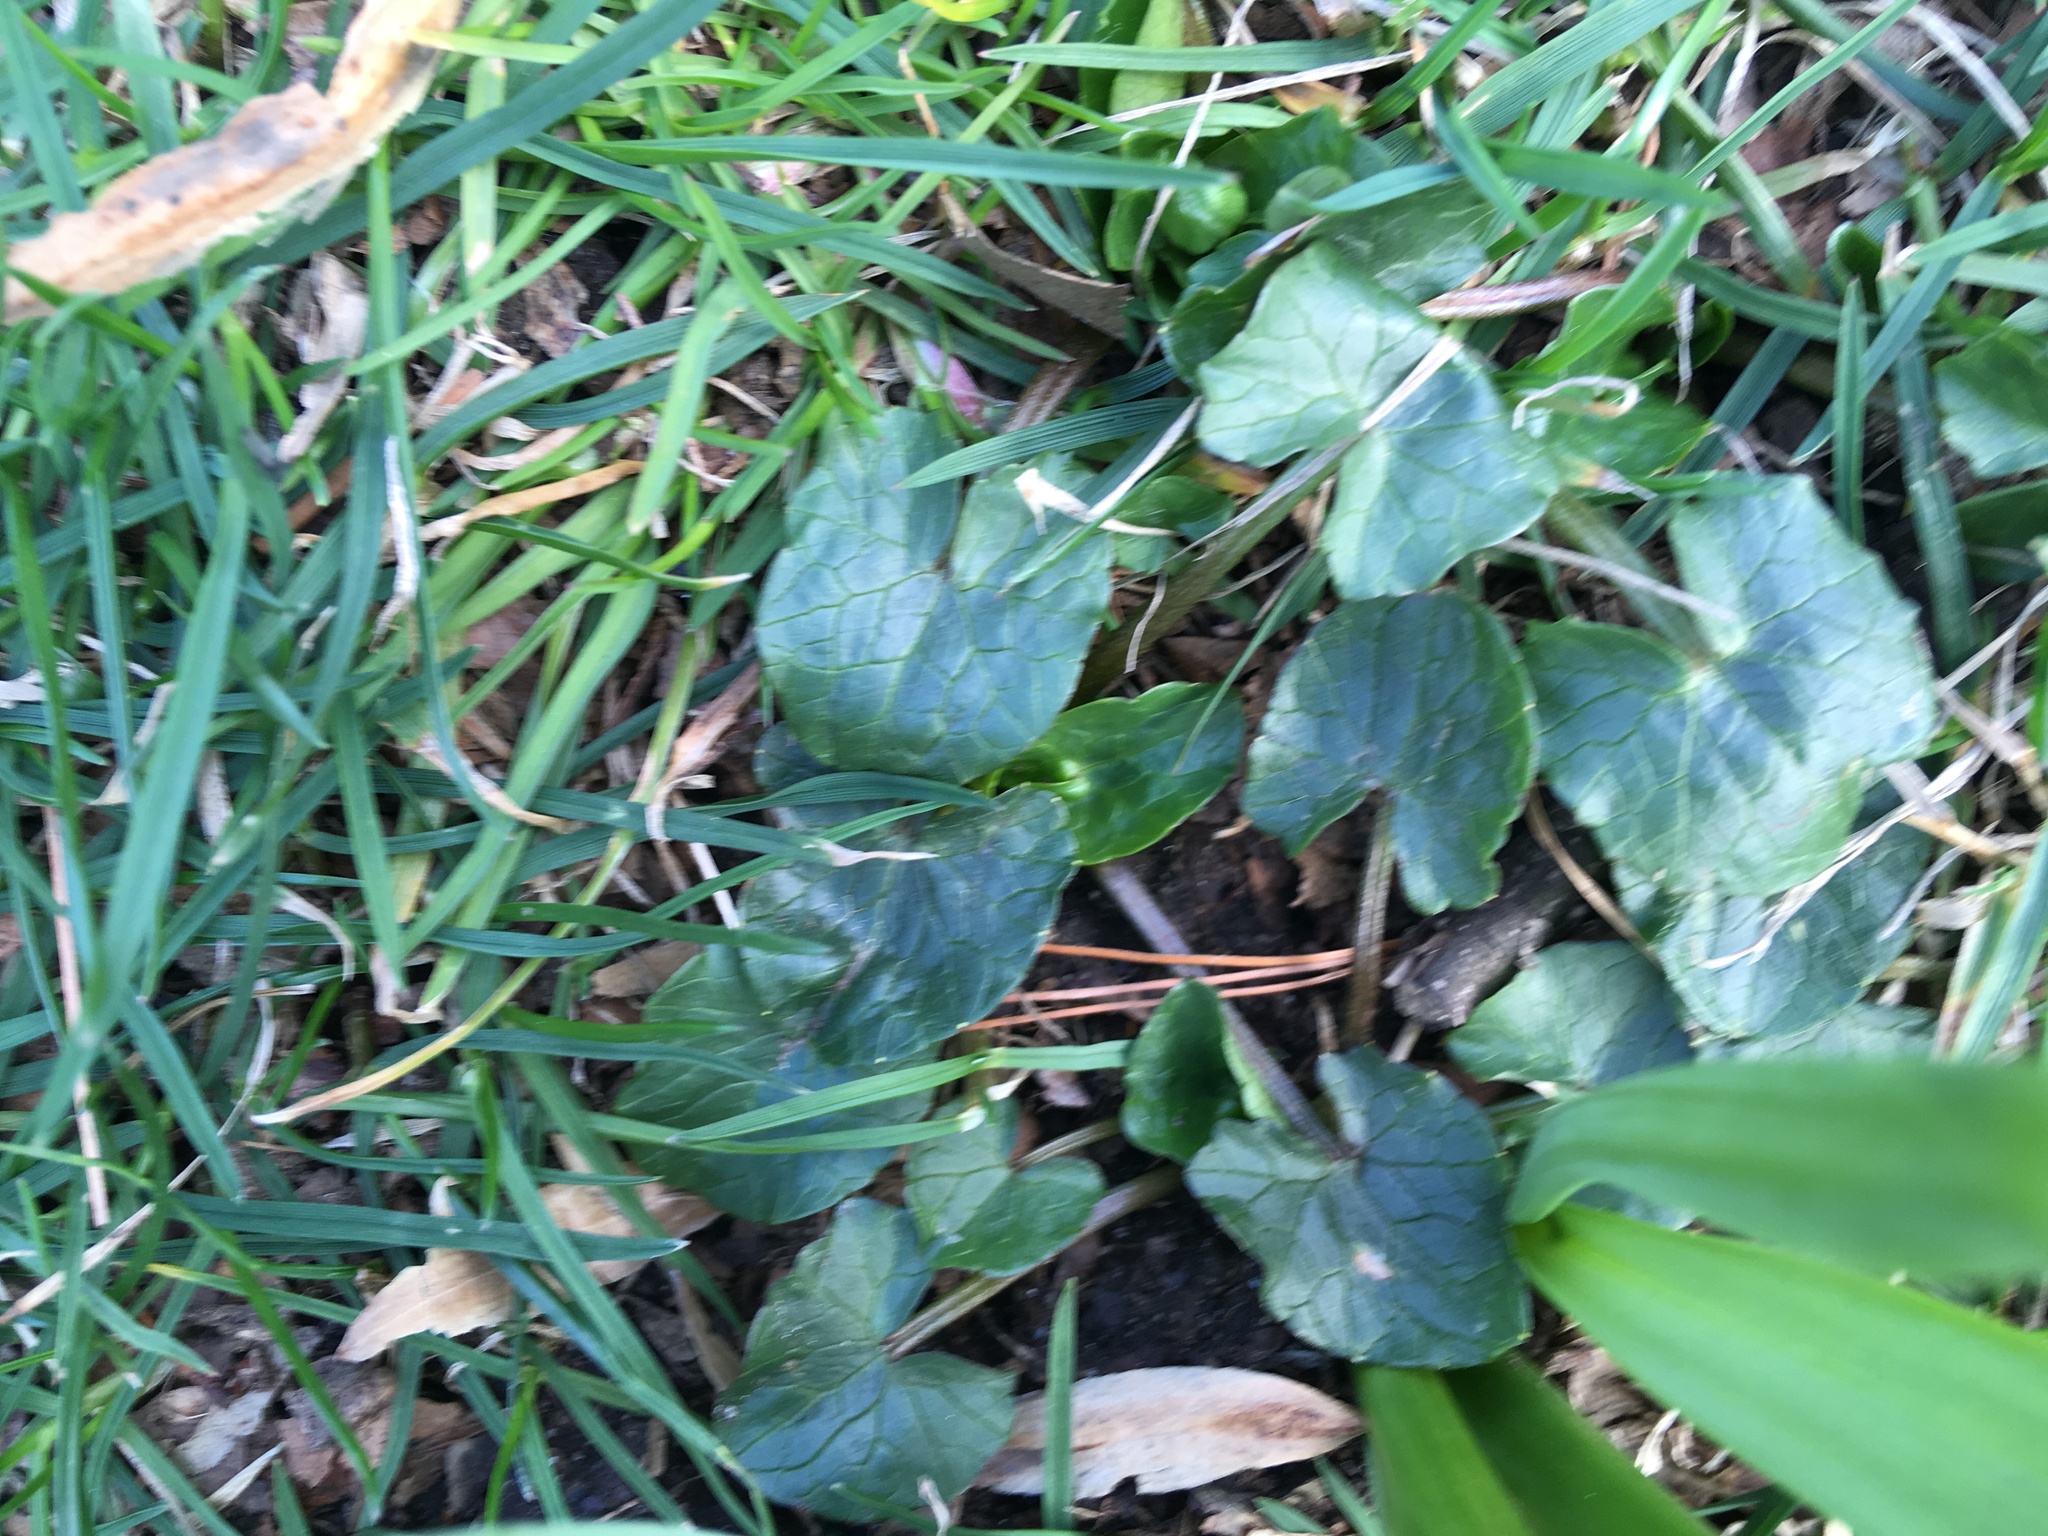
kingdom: Plantae
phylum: Tracheophyta
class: Magnoliopsida
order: Ranunculales
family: Ranunculaceae
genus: Ficaria
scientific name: Ficaria verna
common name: Lesser celandine
